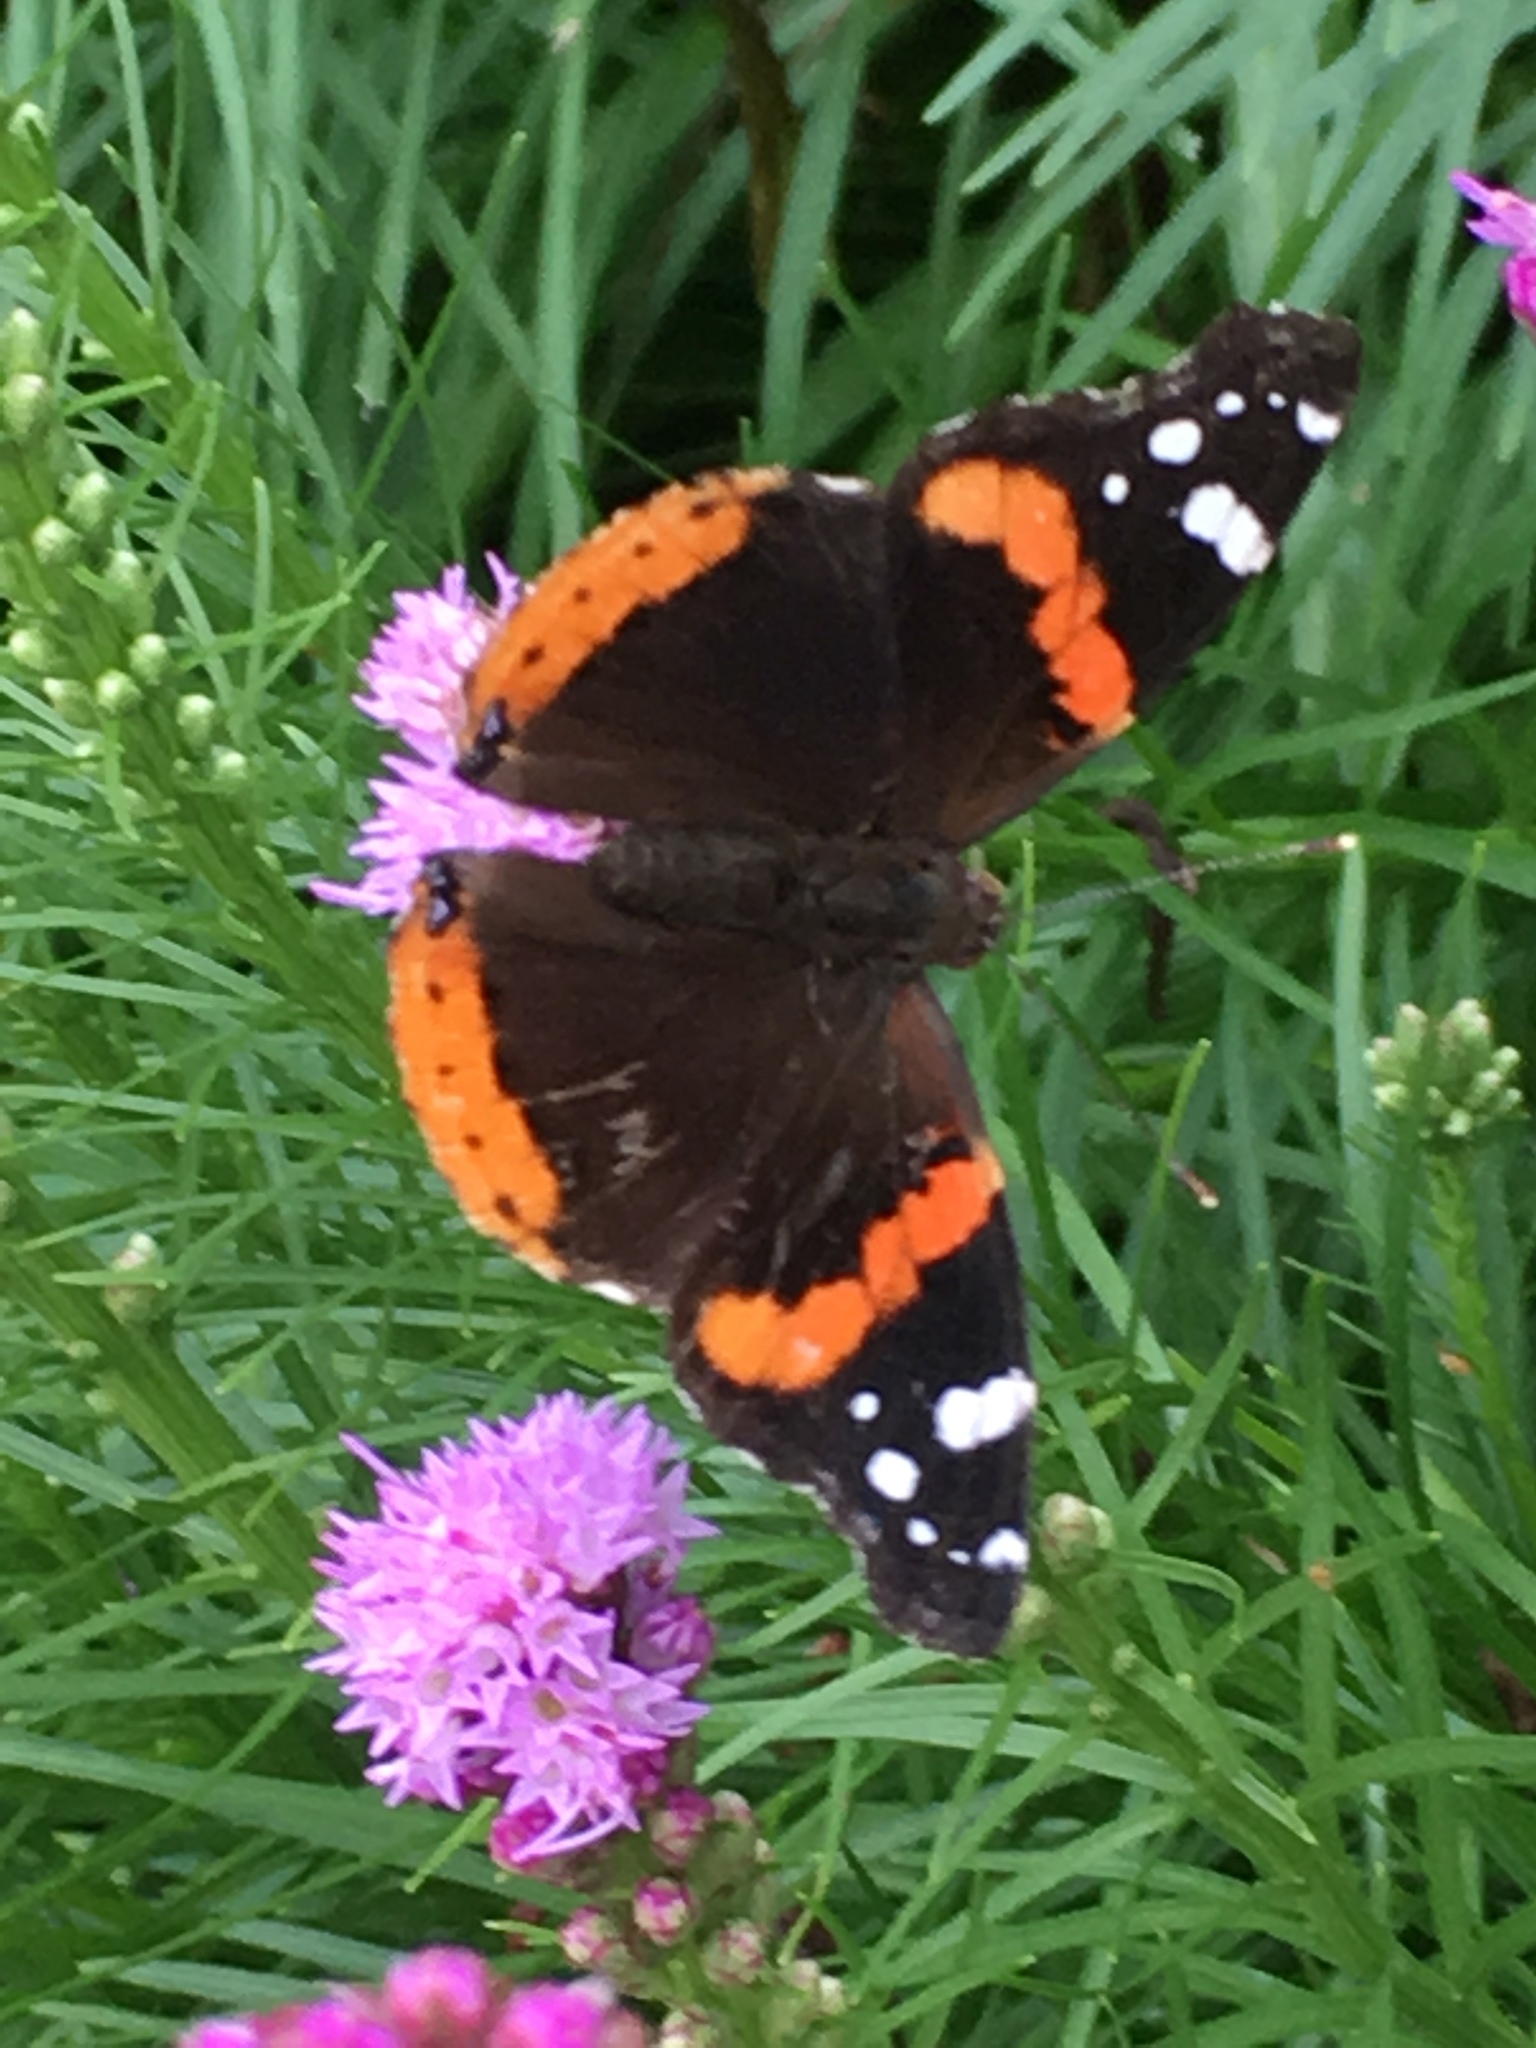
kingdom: Animalia
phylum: Arthropoda
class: Insecta
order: Lepidoptera
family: Nymphalidae
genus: Vanessa
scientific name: Vanessa atalanta
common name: Red admiral
